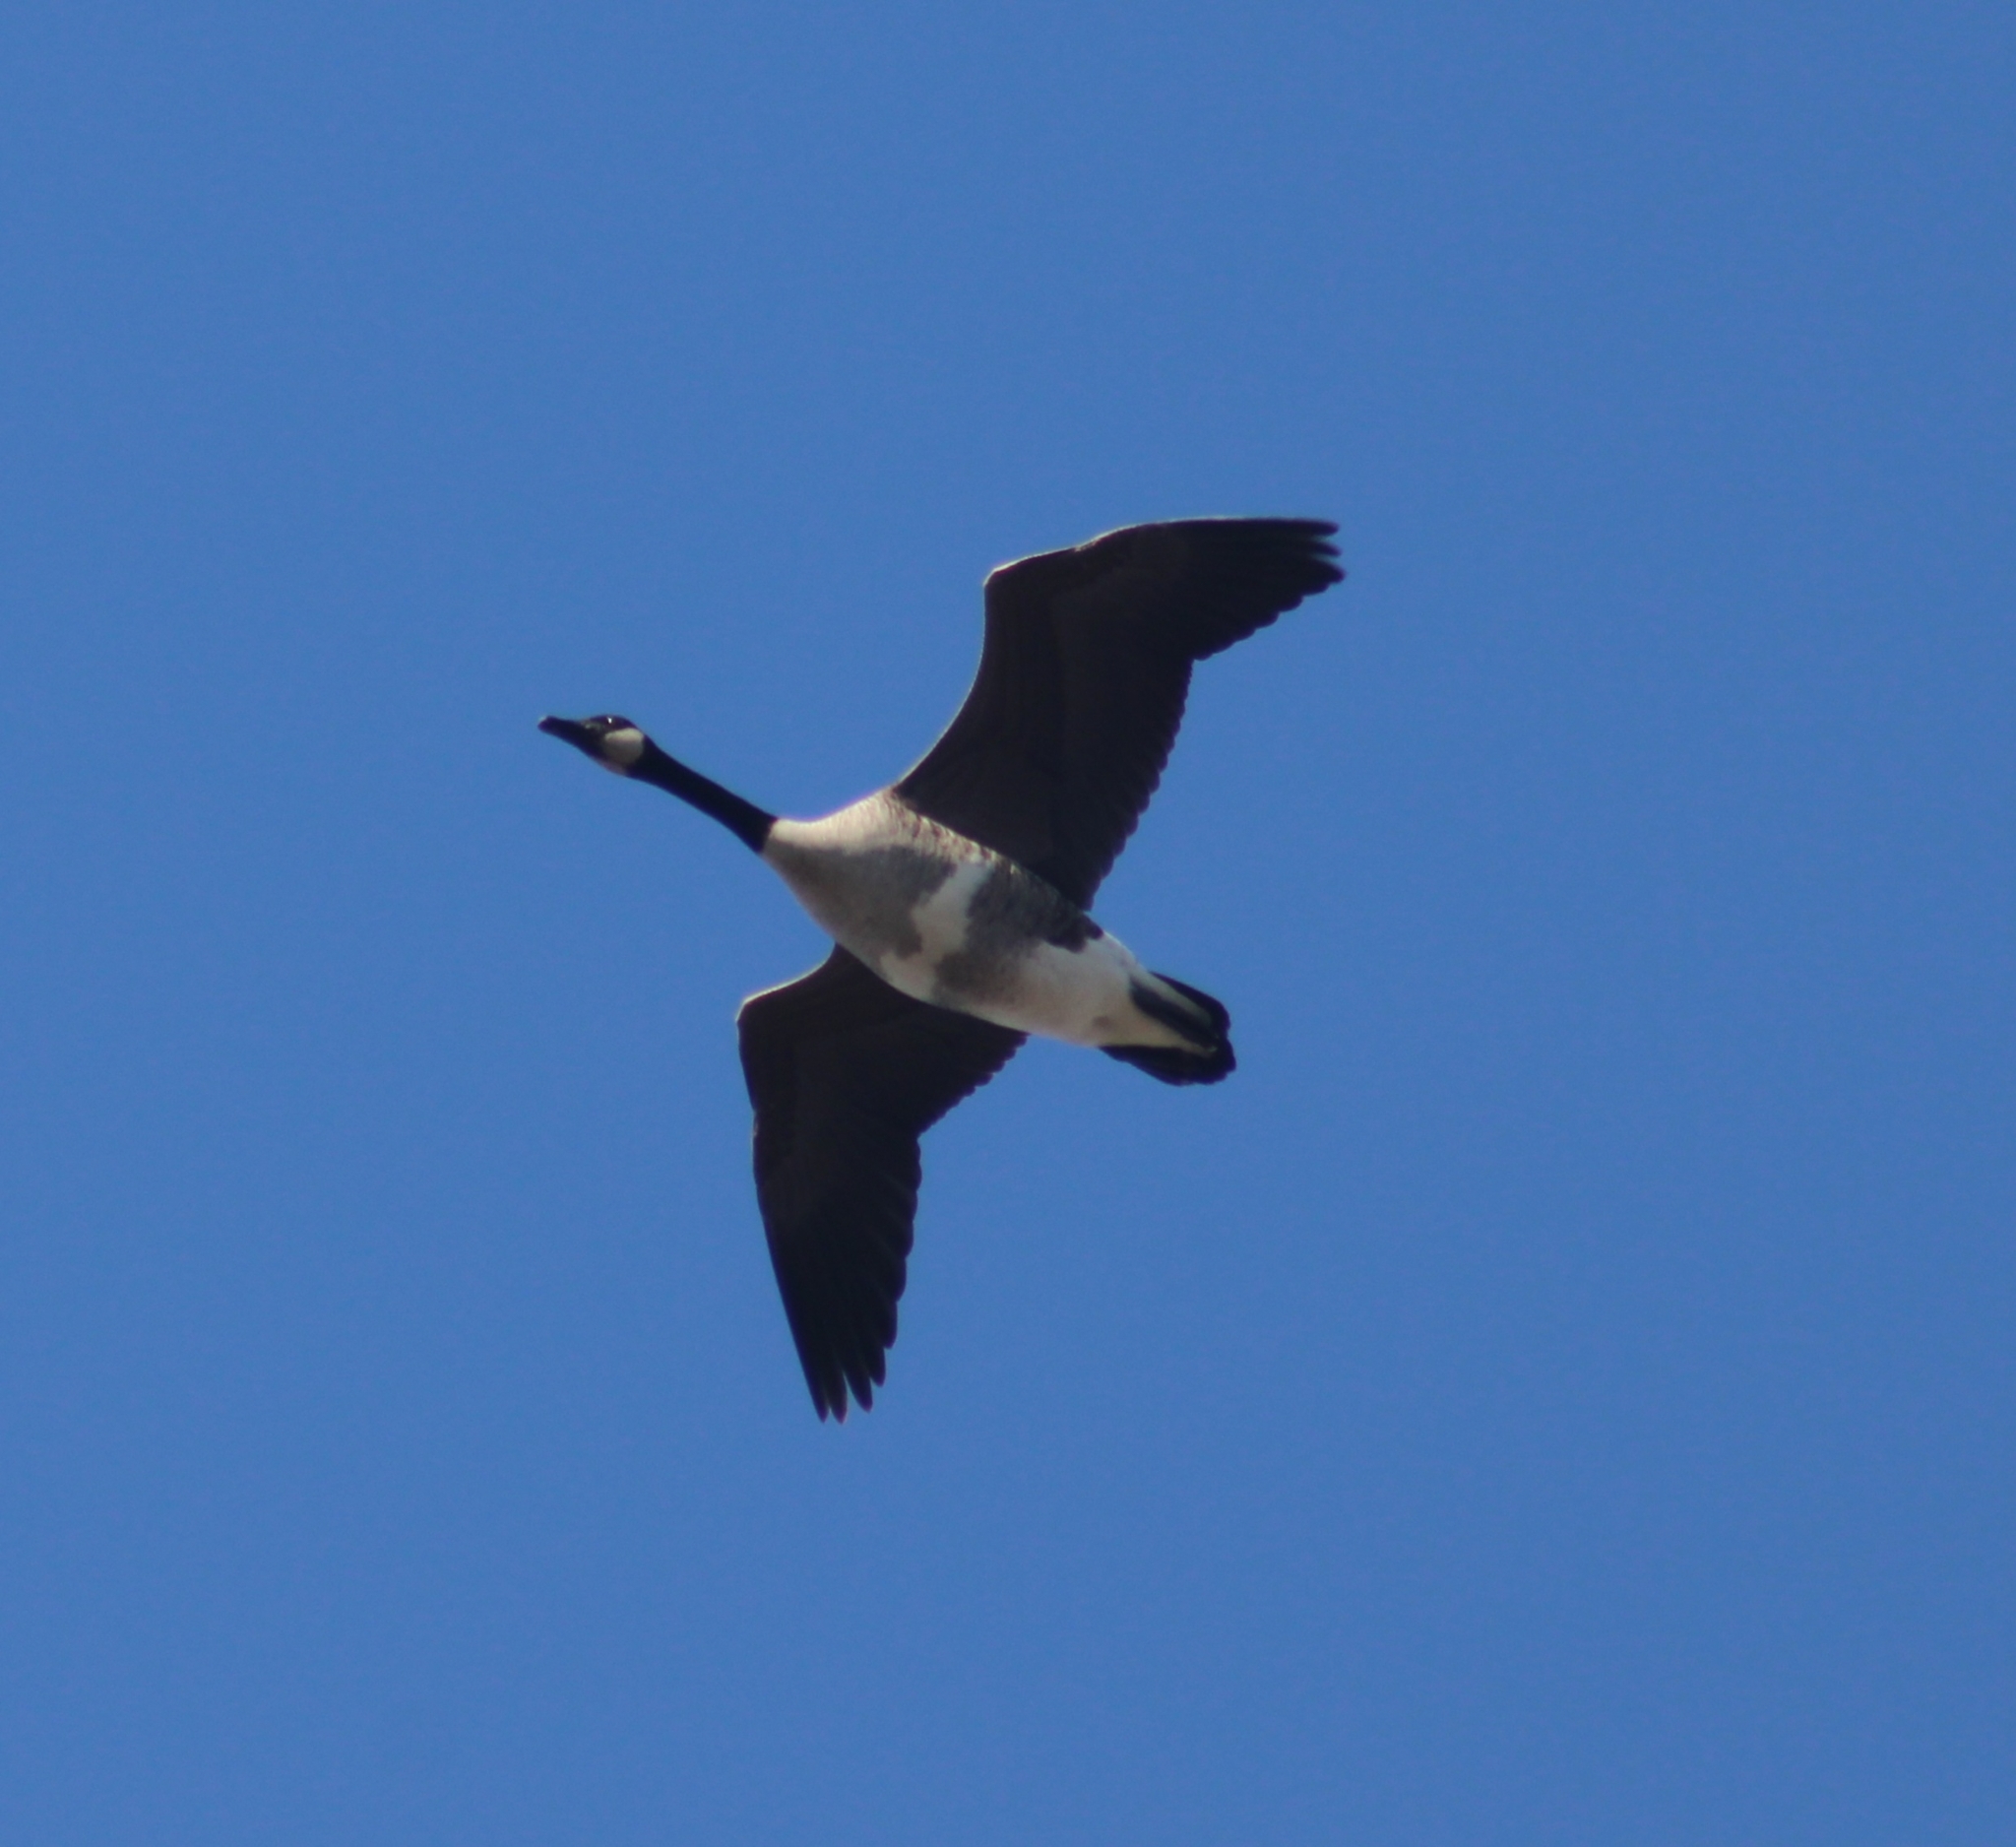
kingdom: Animalia
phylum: Chordata
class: Aves
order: Anseriformes
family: Anatidae
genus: Branta
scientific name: Branta canadensis
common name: Canada goose
